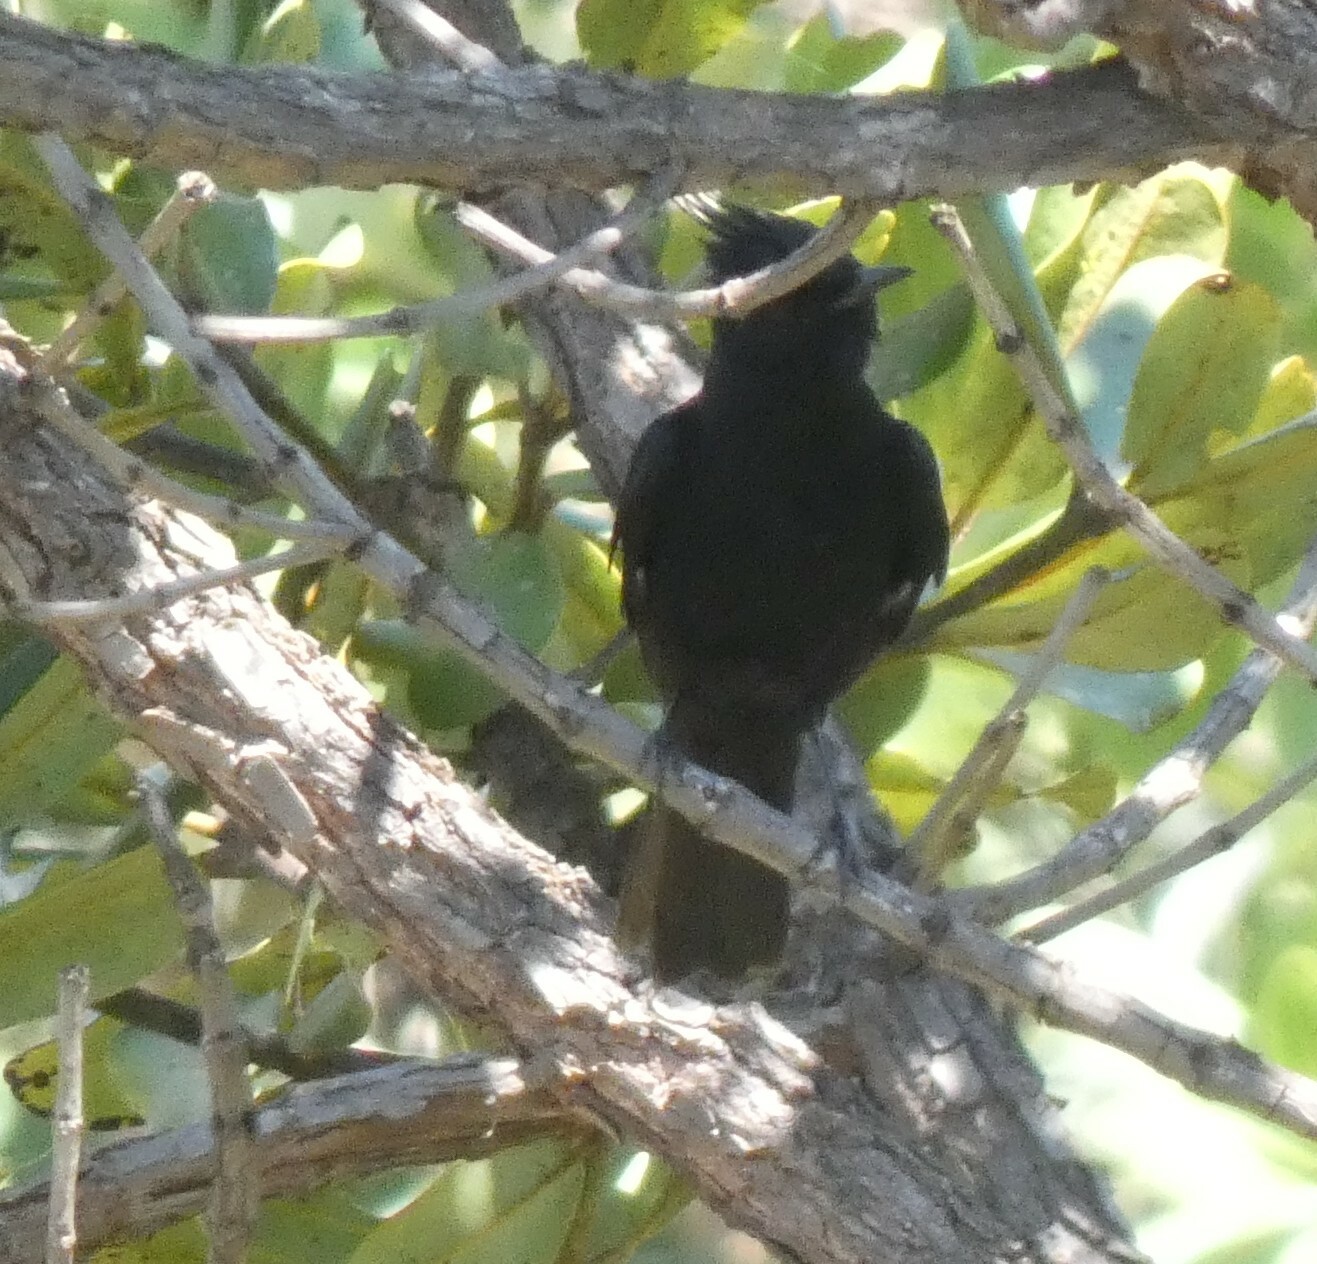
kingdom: Animalia
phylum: Chordata
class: Aves
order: Passeriformes
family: Tyrannidae
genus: Knipolegus
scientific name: Knipolegus lophotes
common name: Crested black tyrant
